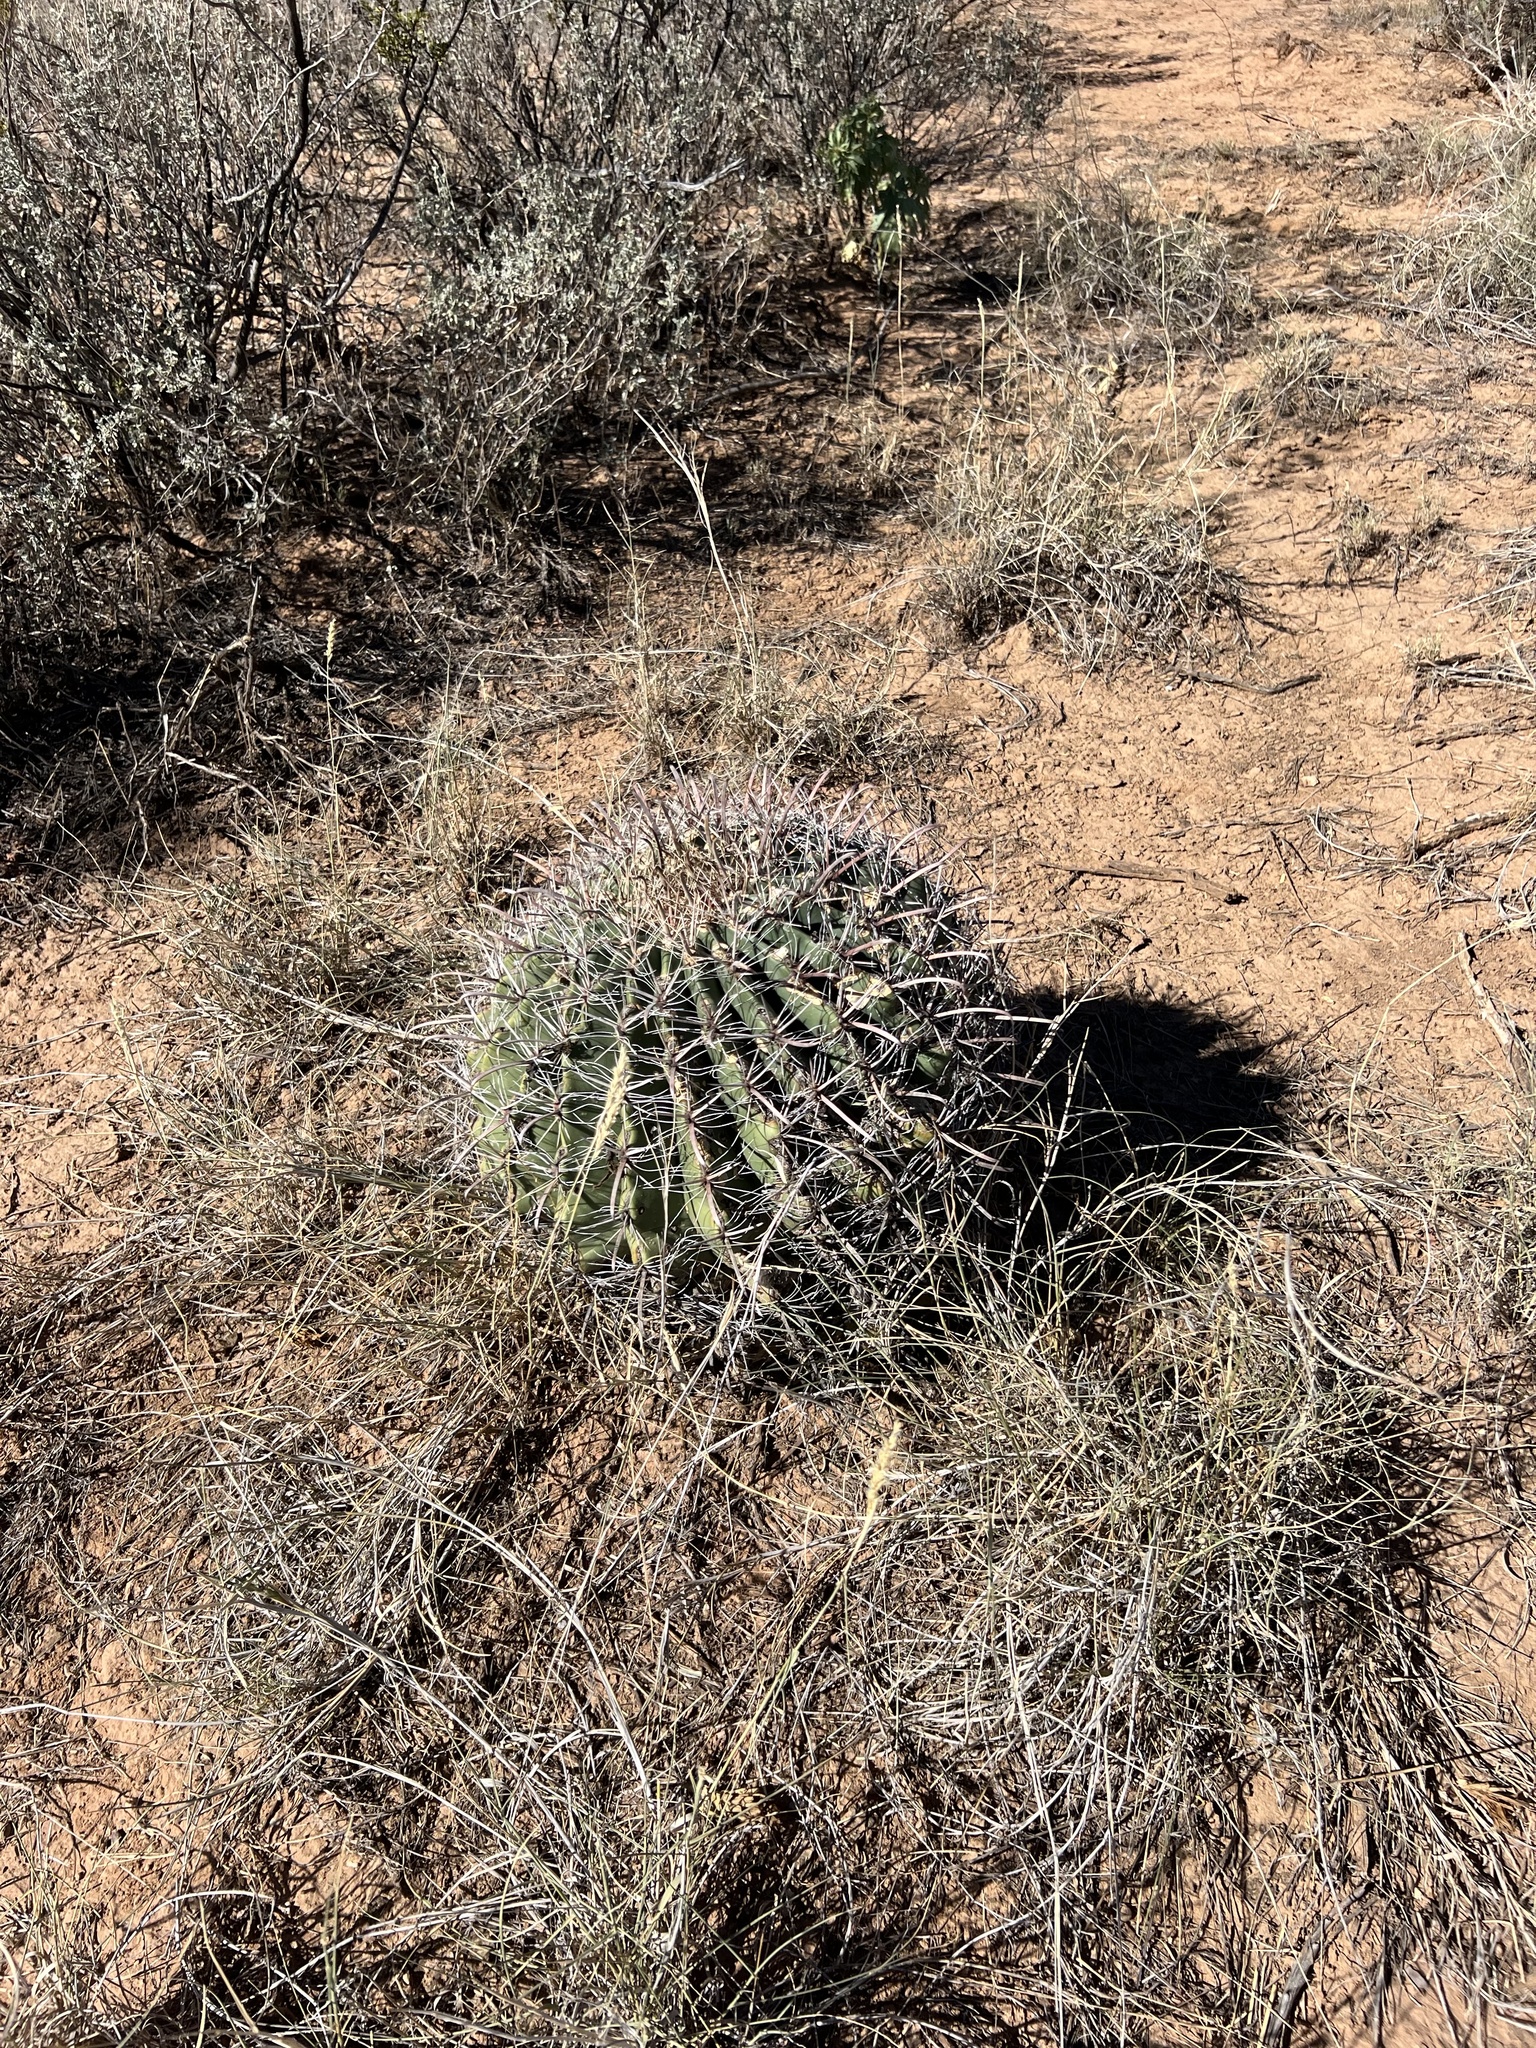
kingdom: Plantae
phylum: Tracheophyta
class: Magnoliopsida
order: Caryophyllales
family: Cactaceae
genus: Ferocactus
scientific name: Ferocactus wislizeni
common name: Candy barrel cactus
